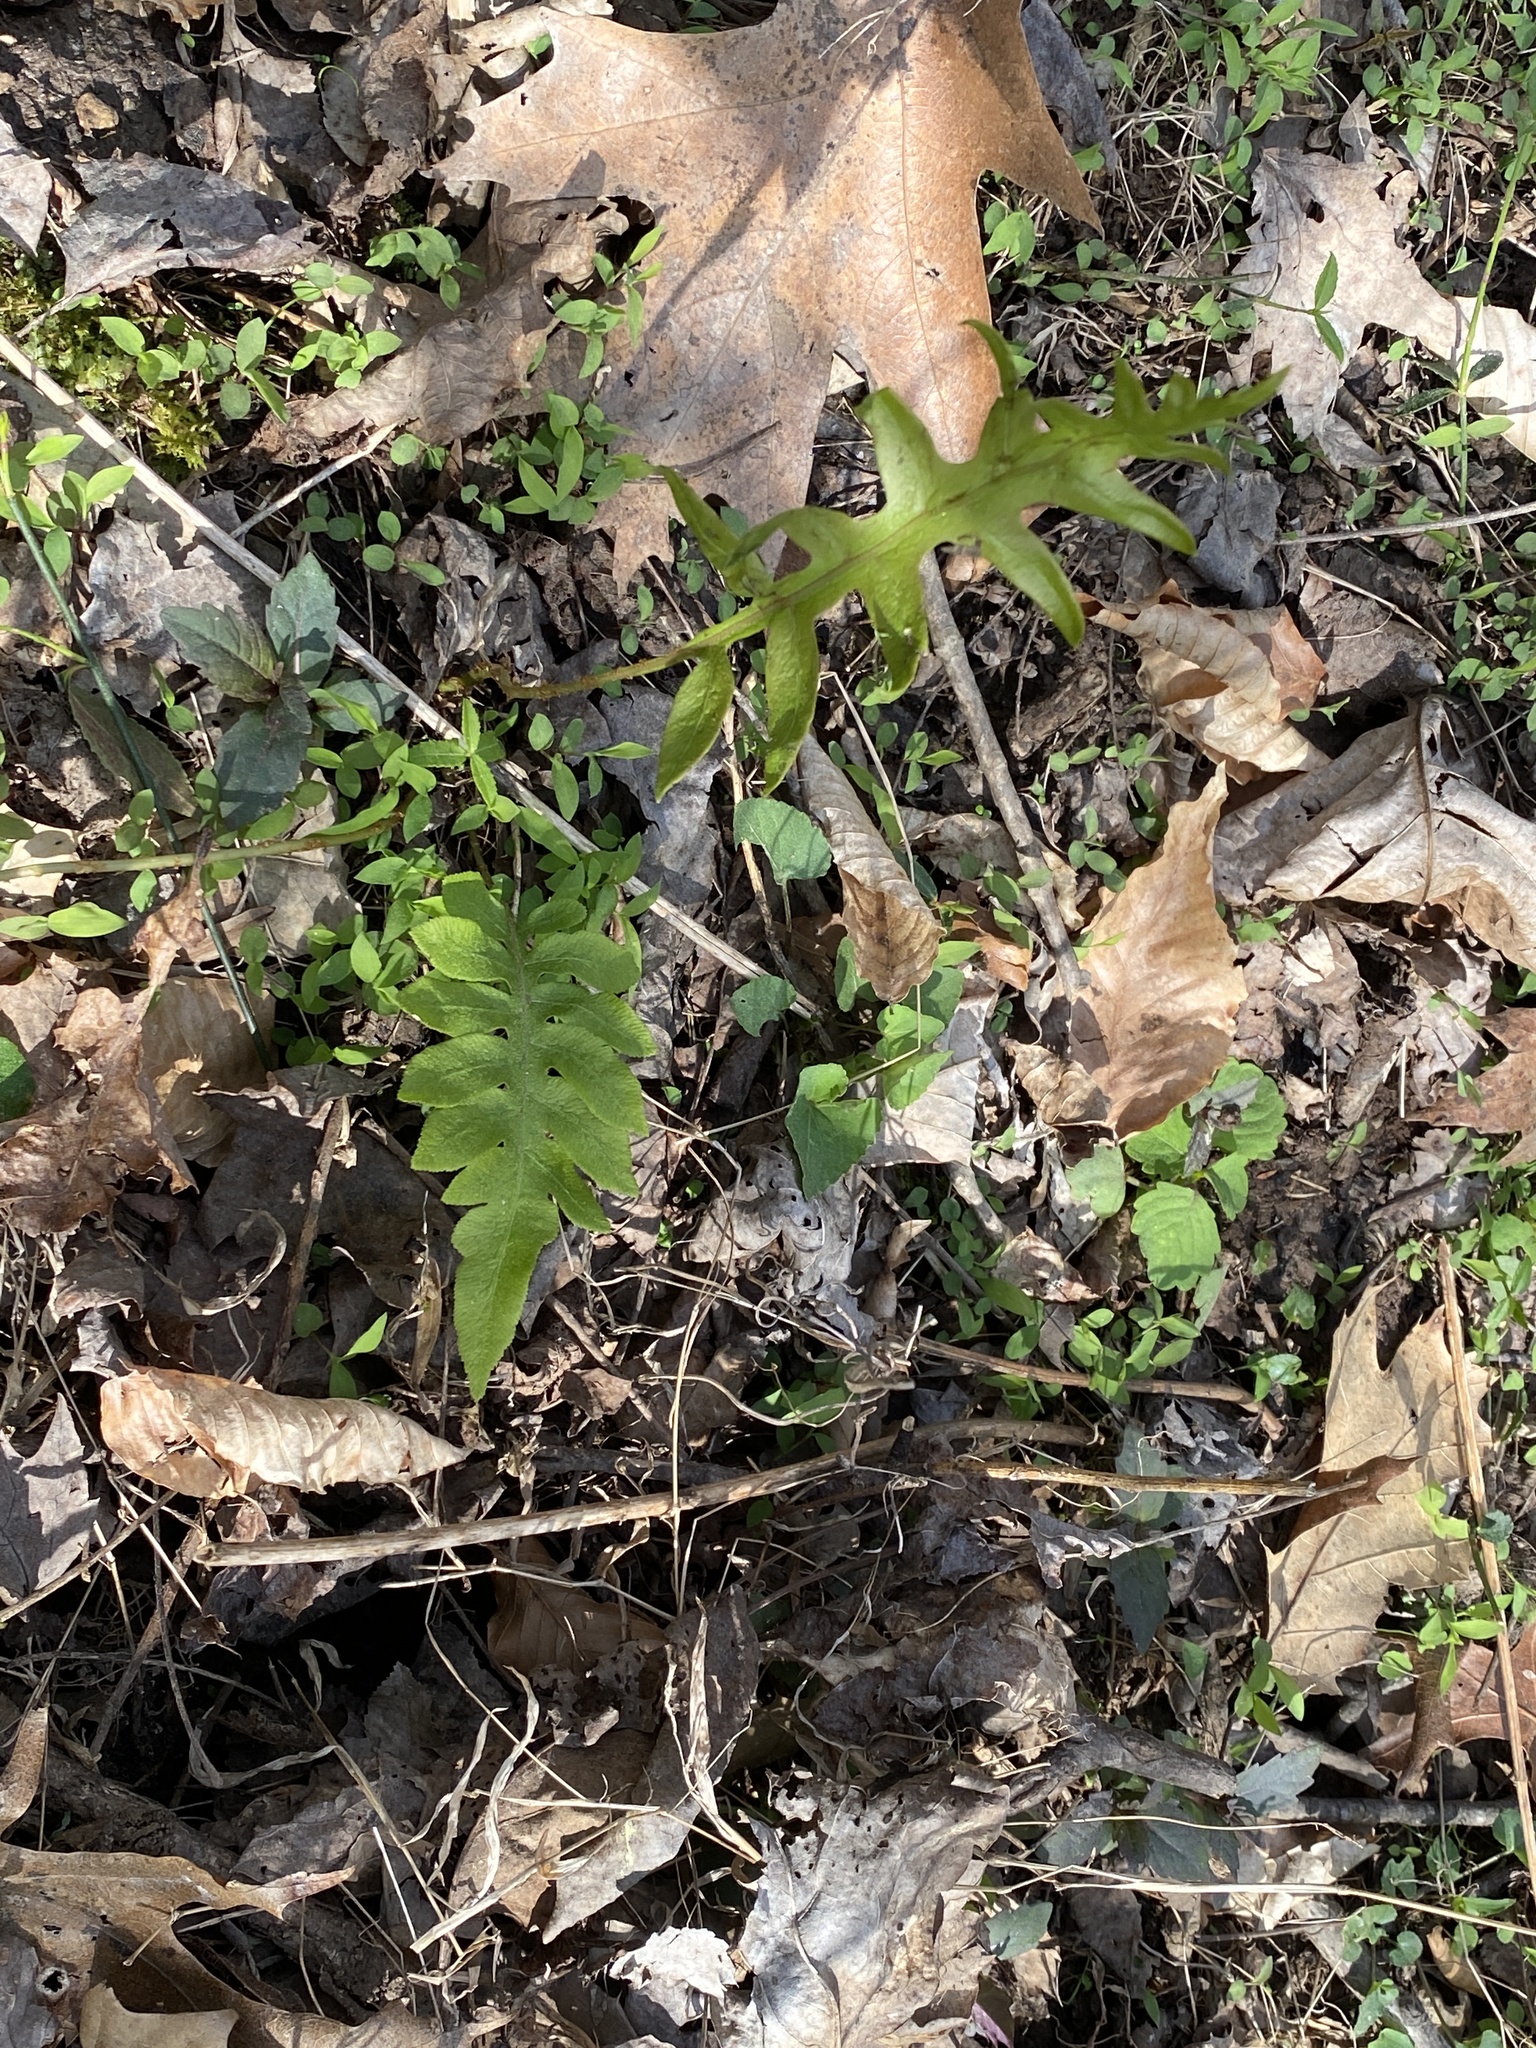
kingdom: Plantae
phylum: Tracheophyta
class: Polypodiopsida
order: Polypodiales
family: Blechnaceae
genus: Lorinseria
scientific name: Lorinseria areolata
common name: Dwarf chain fern
